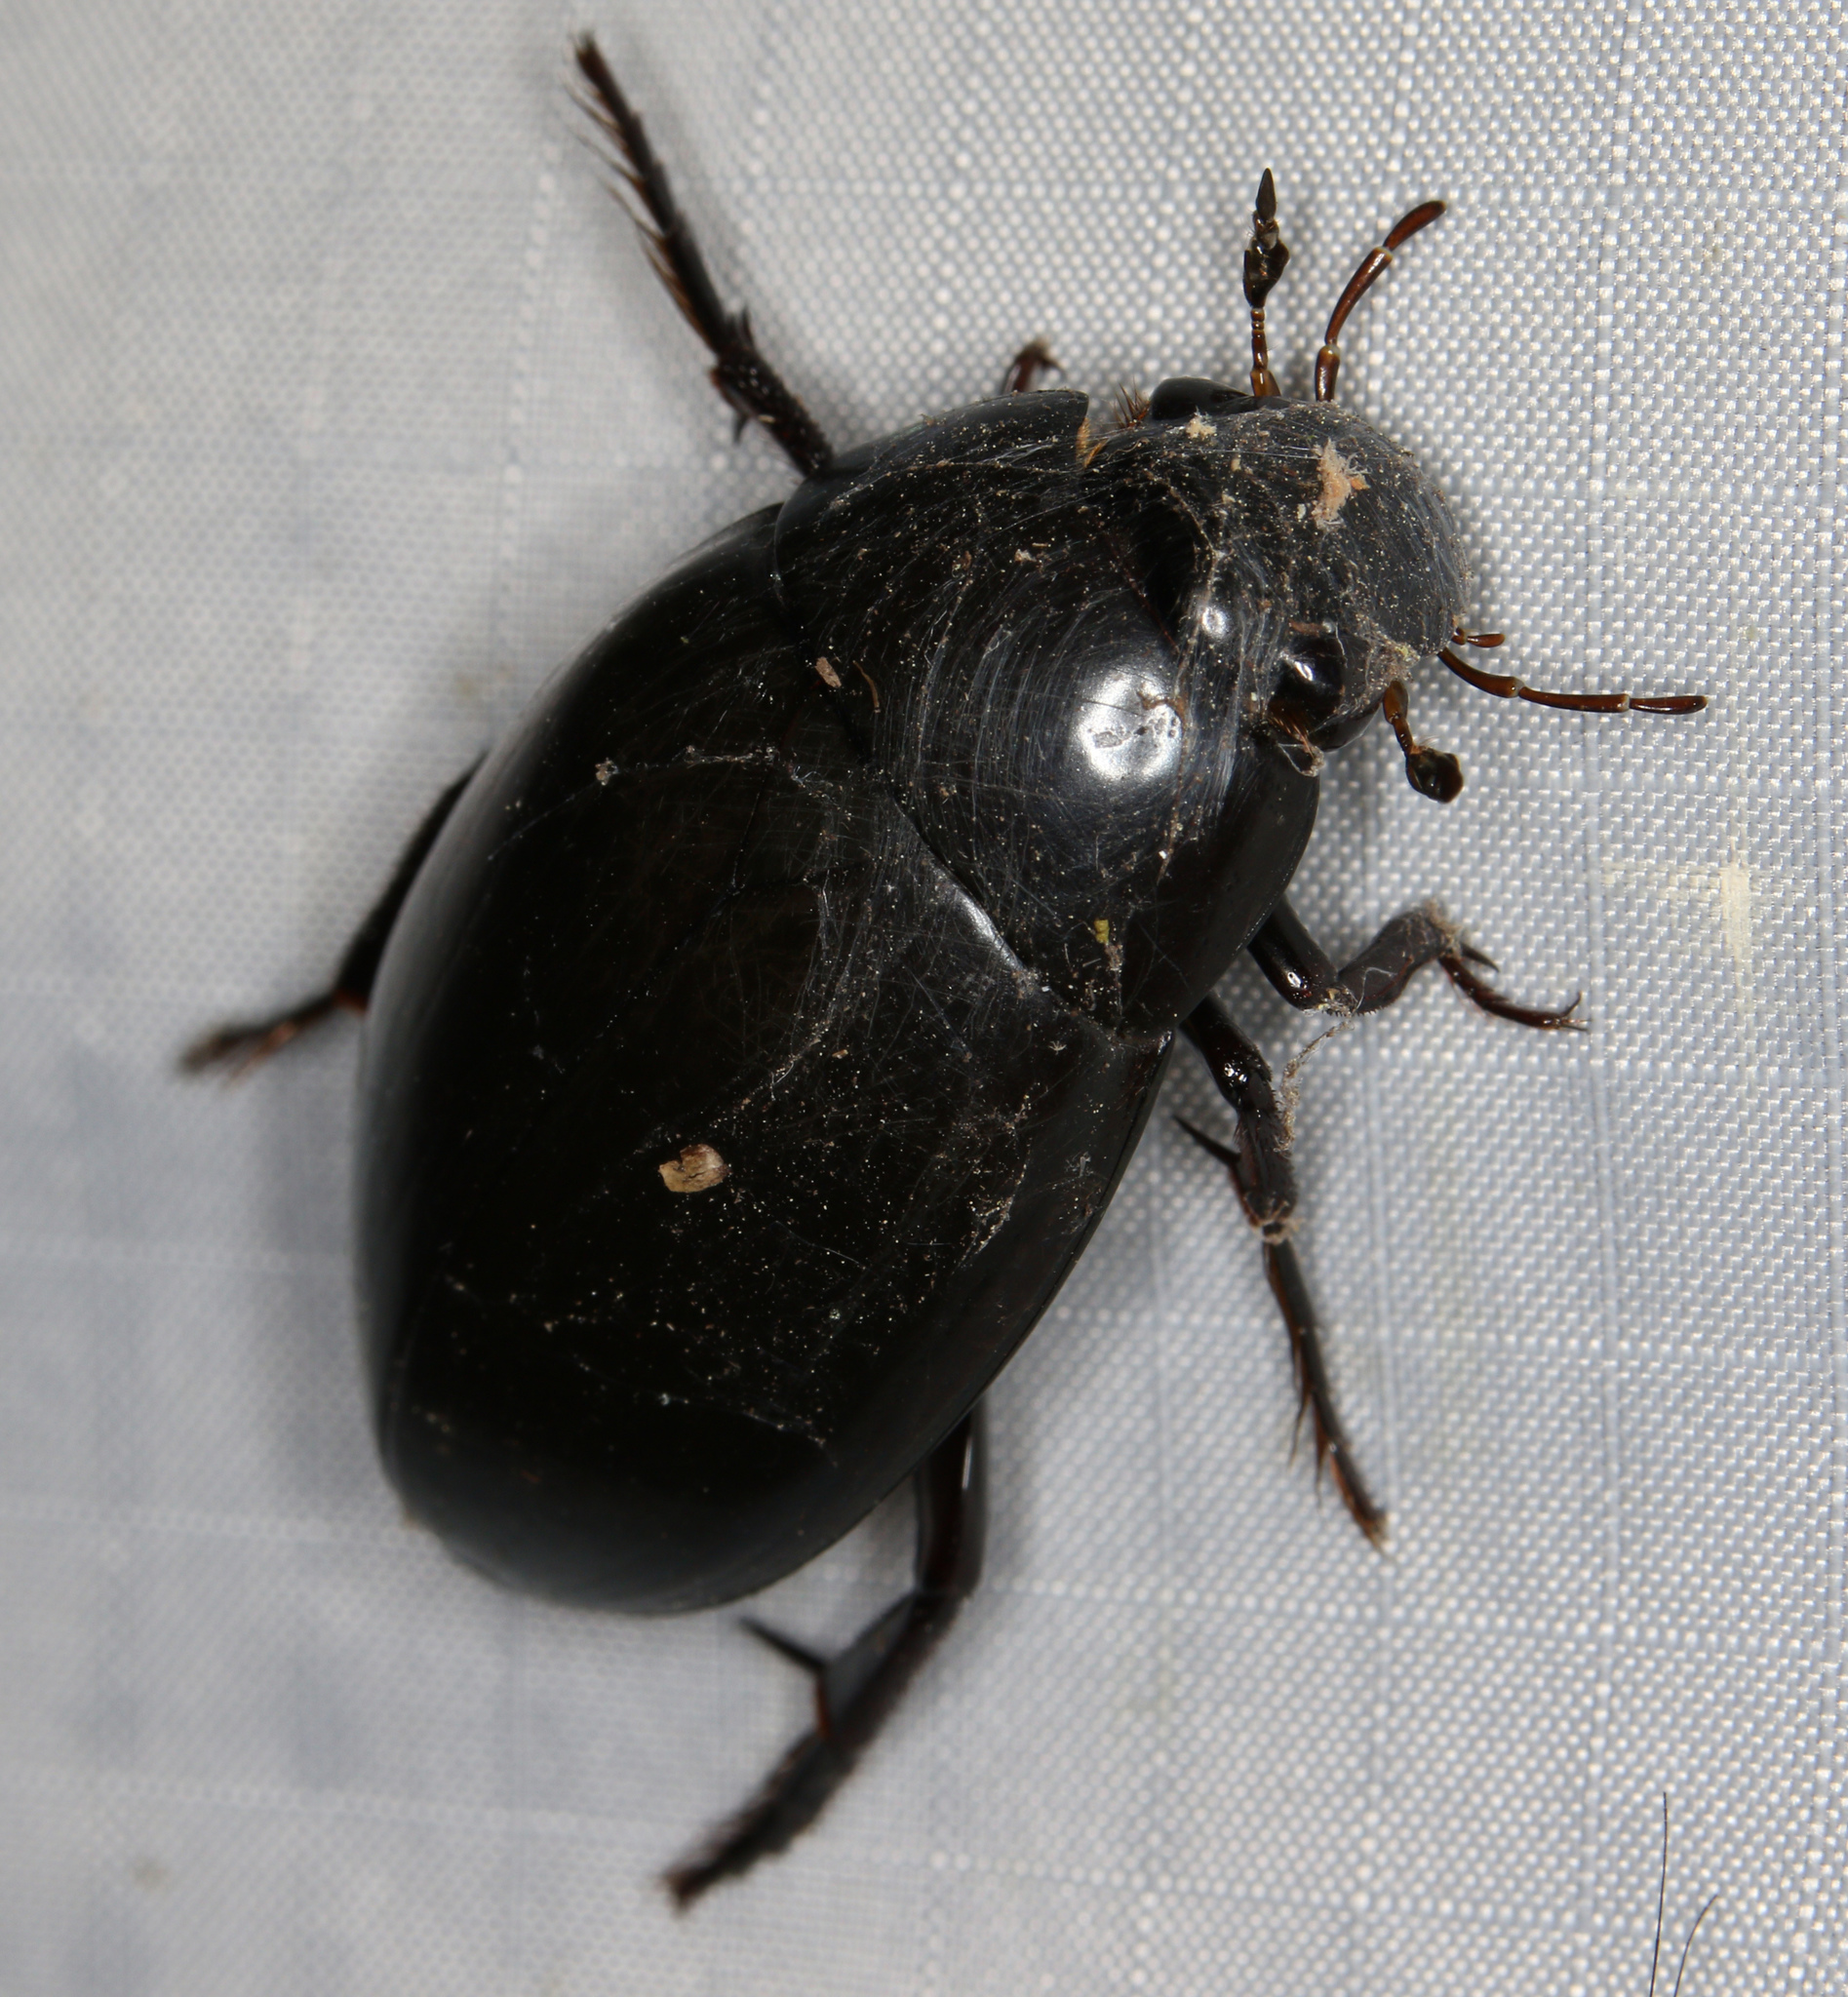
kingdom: Animalia
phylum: Arthropoda
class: Insecta
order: Coleoptera
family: Hydrophilidae
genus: Hydrophilus
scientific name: Hydrophilus ovatus
